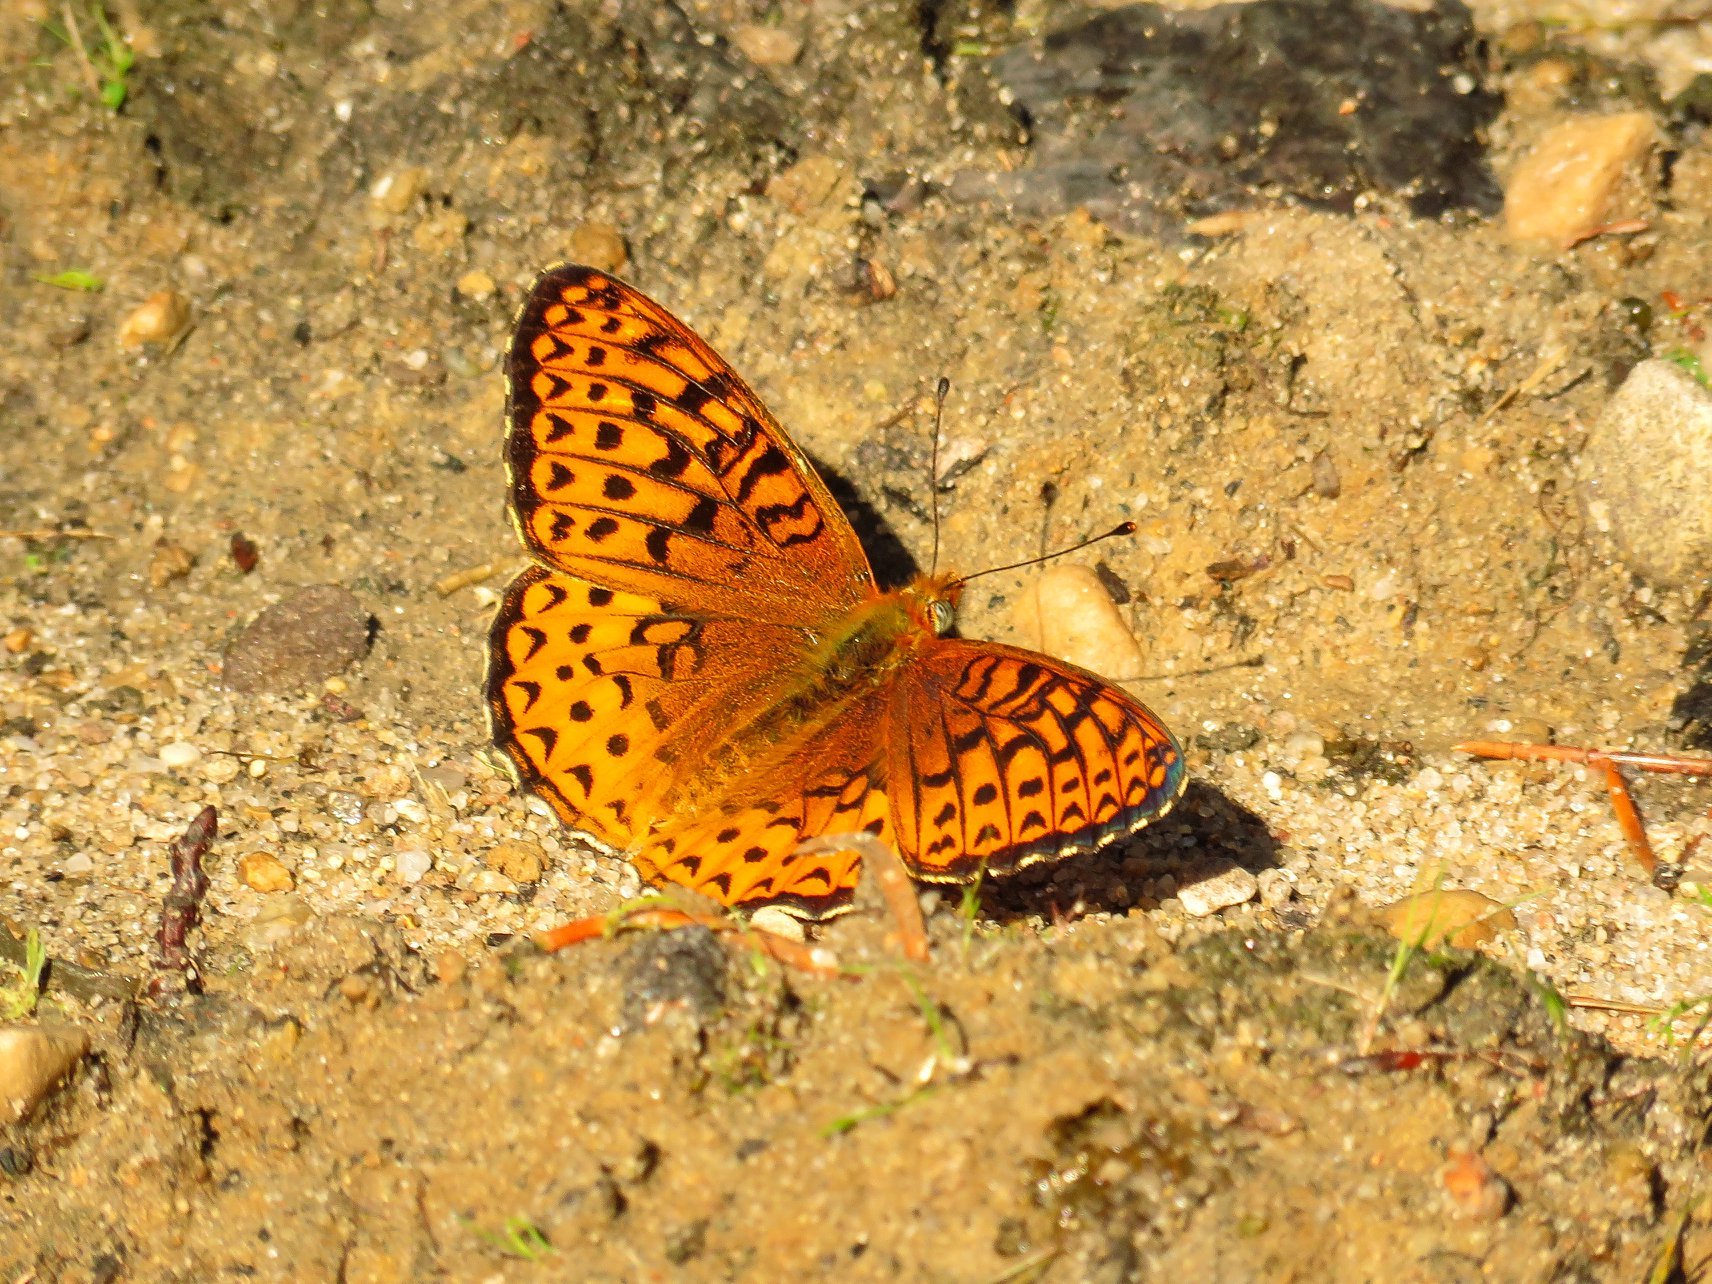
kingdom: Animalia
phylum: Arthropoda
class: Insecta
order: Lepidoptera
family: Nymphalidae
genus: Speyeria
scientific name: Speyeria atlantis
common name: Atlantis fritillary
